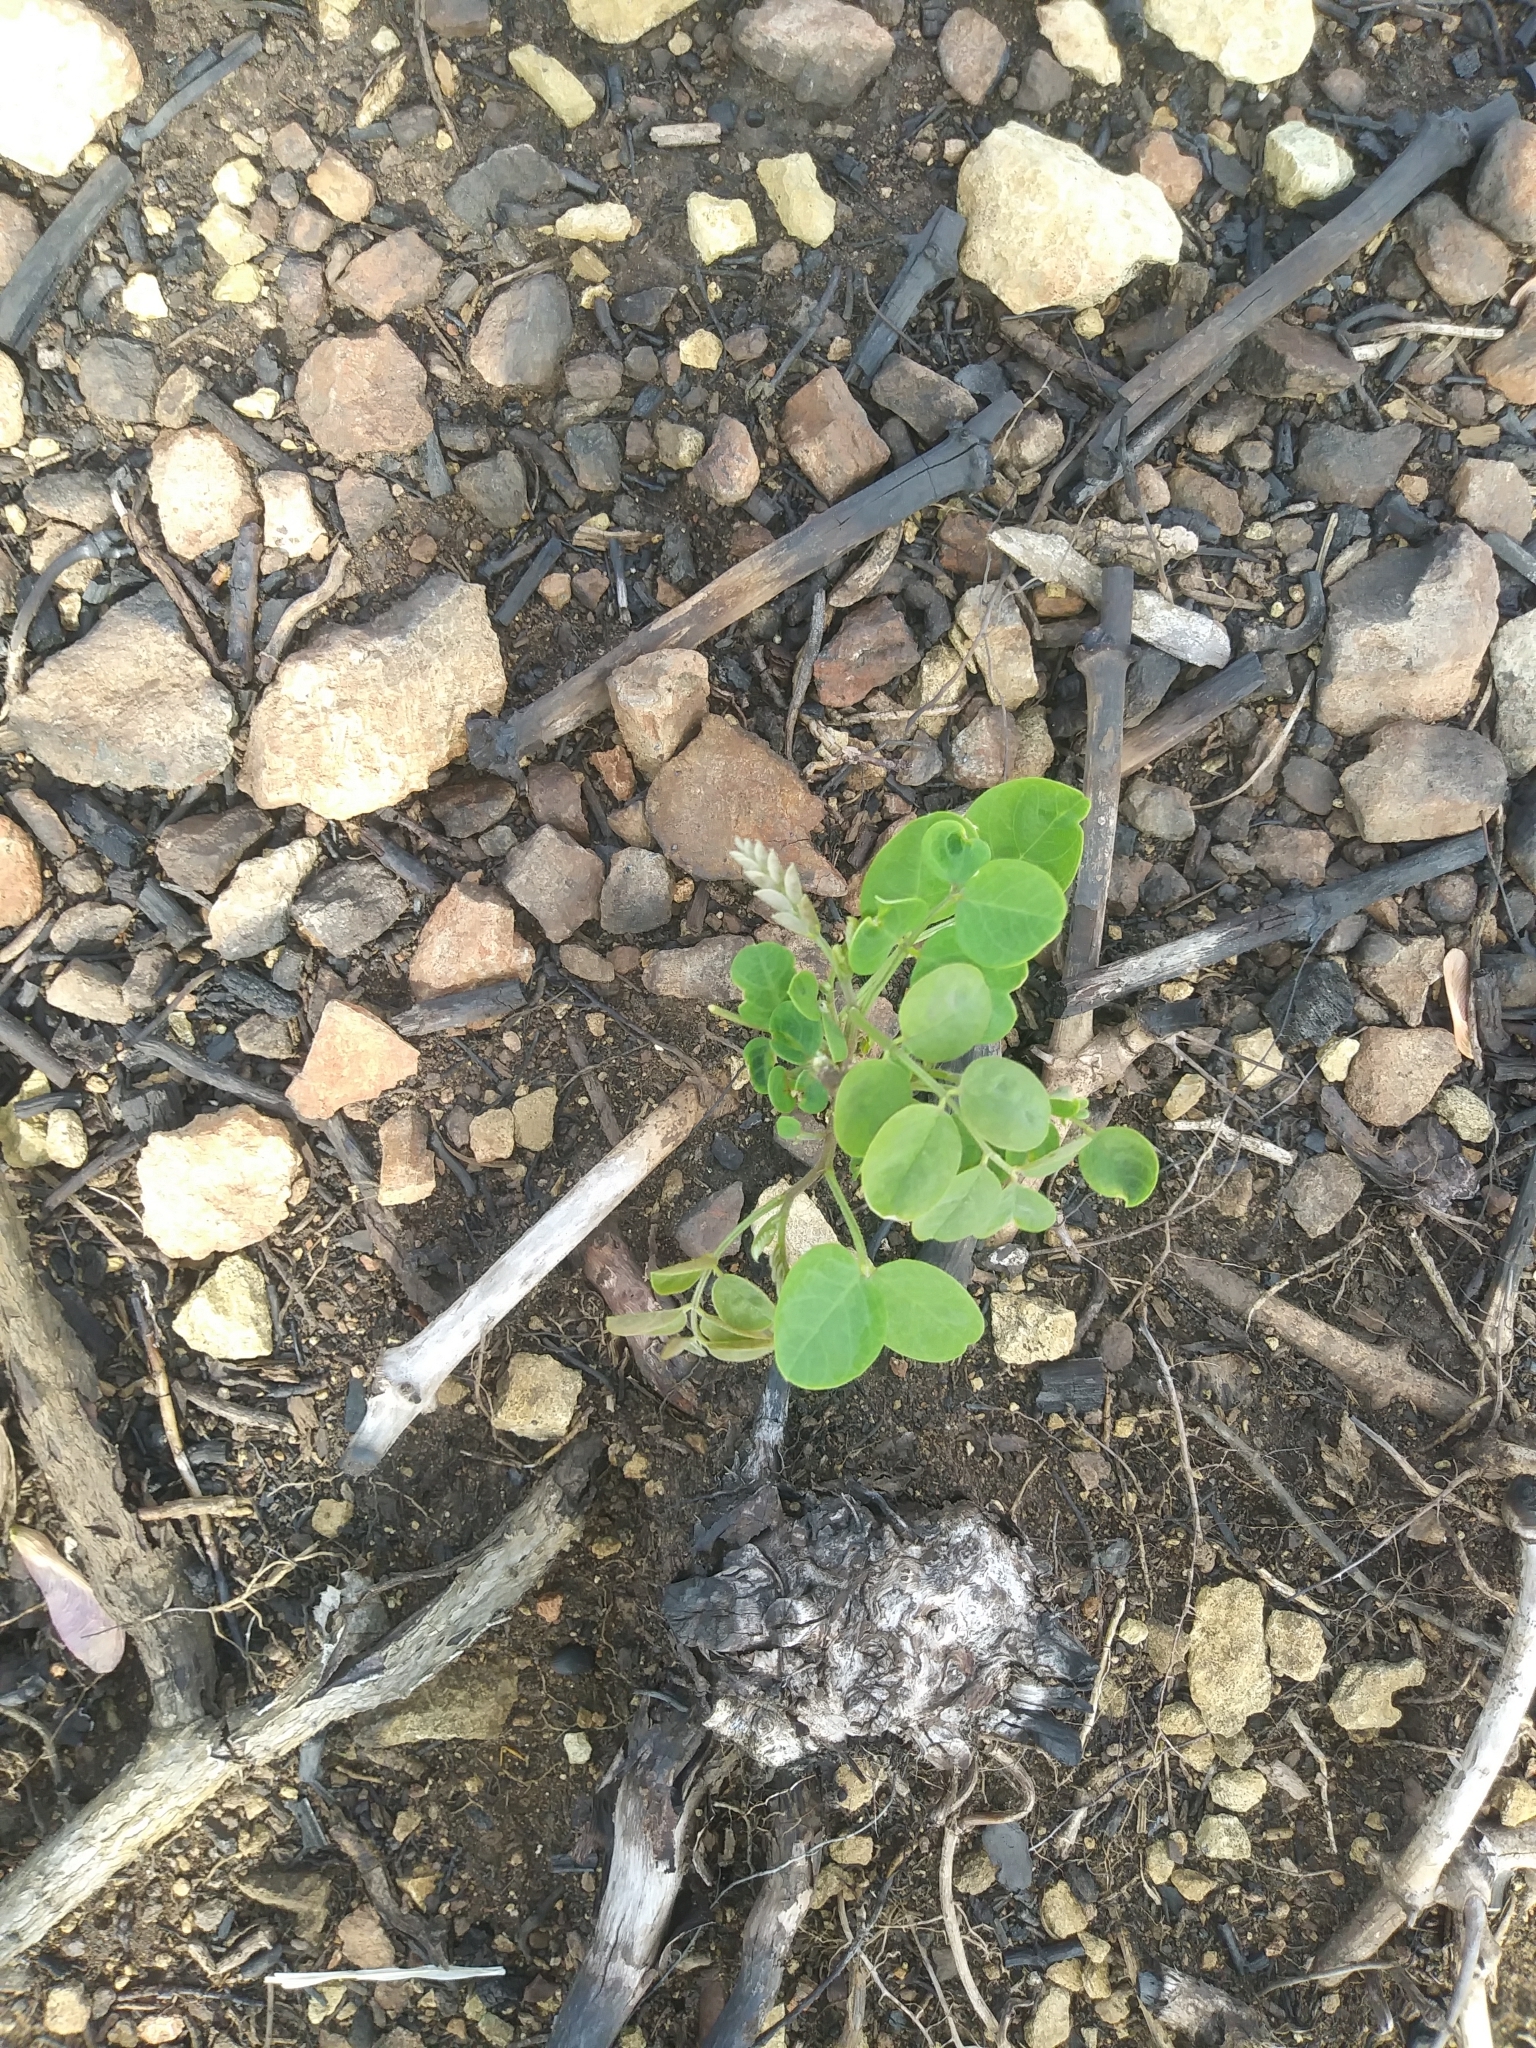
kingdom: Plantae
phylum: Tracheophyta
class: Magnoliopsida
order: Fabales
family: Fabaceae
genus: Robinia
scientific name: Robinia pseudoacacia
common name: Black locust
